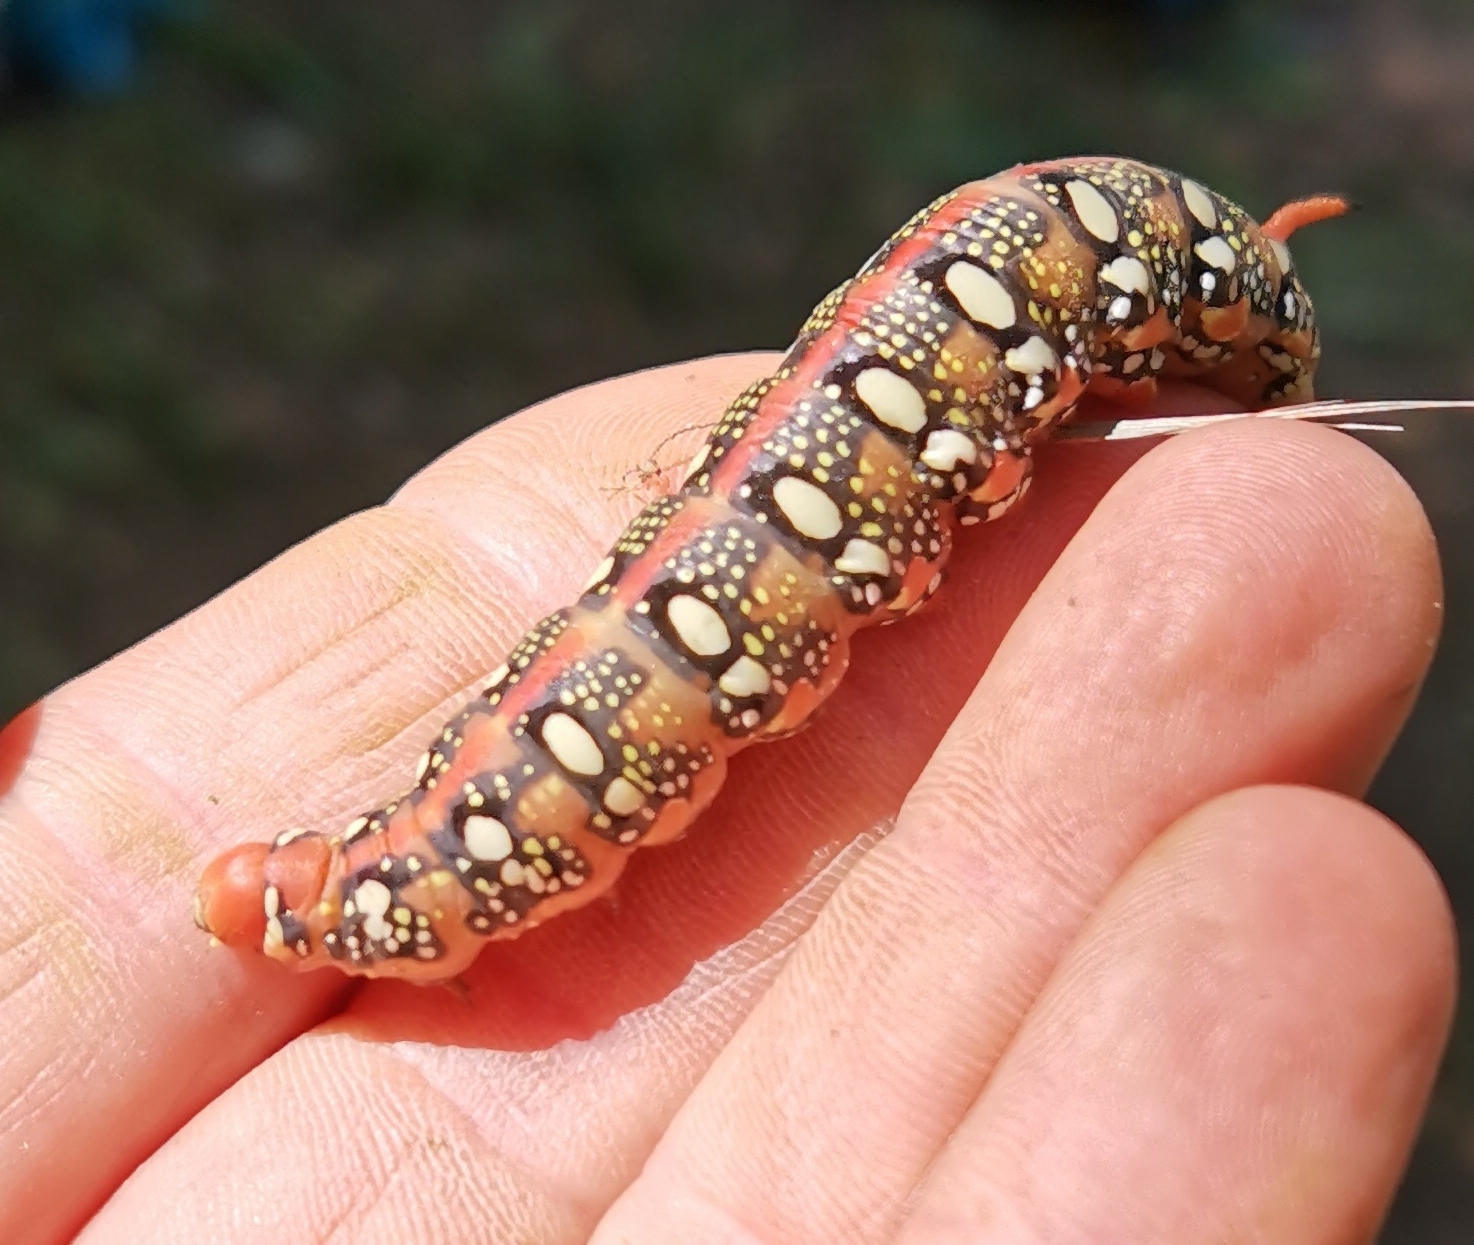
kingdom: Animalia
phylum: Arthropoda
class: Insecta
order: Lepidoptera
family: Sphingidae
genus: Hyles
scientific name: Hyles euphorbiae
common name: Spurge hawk-moth
